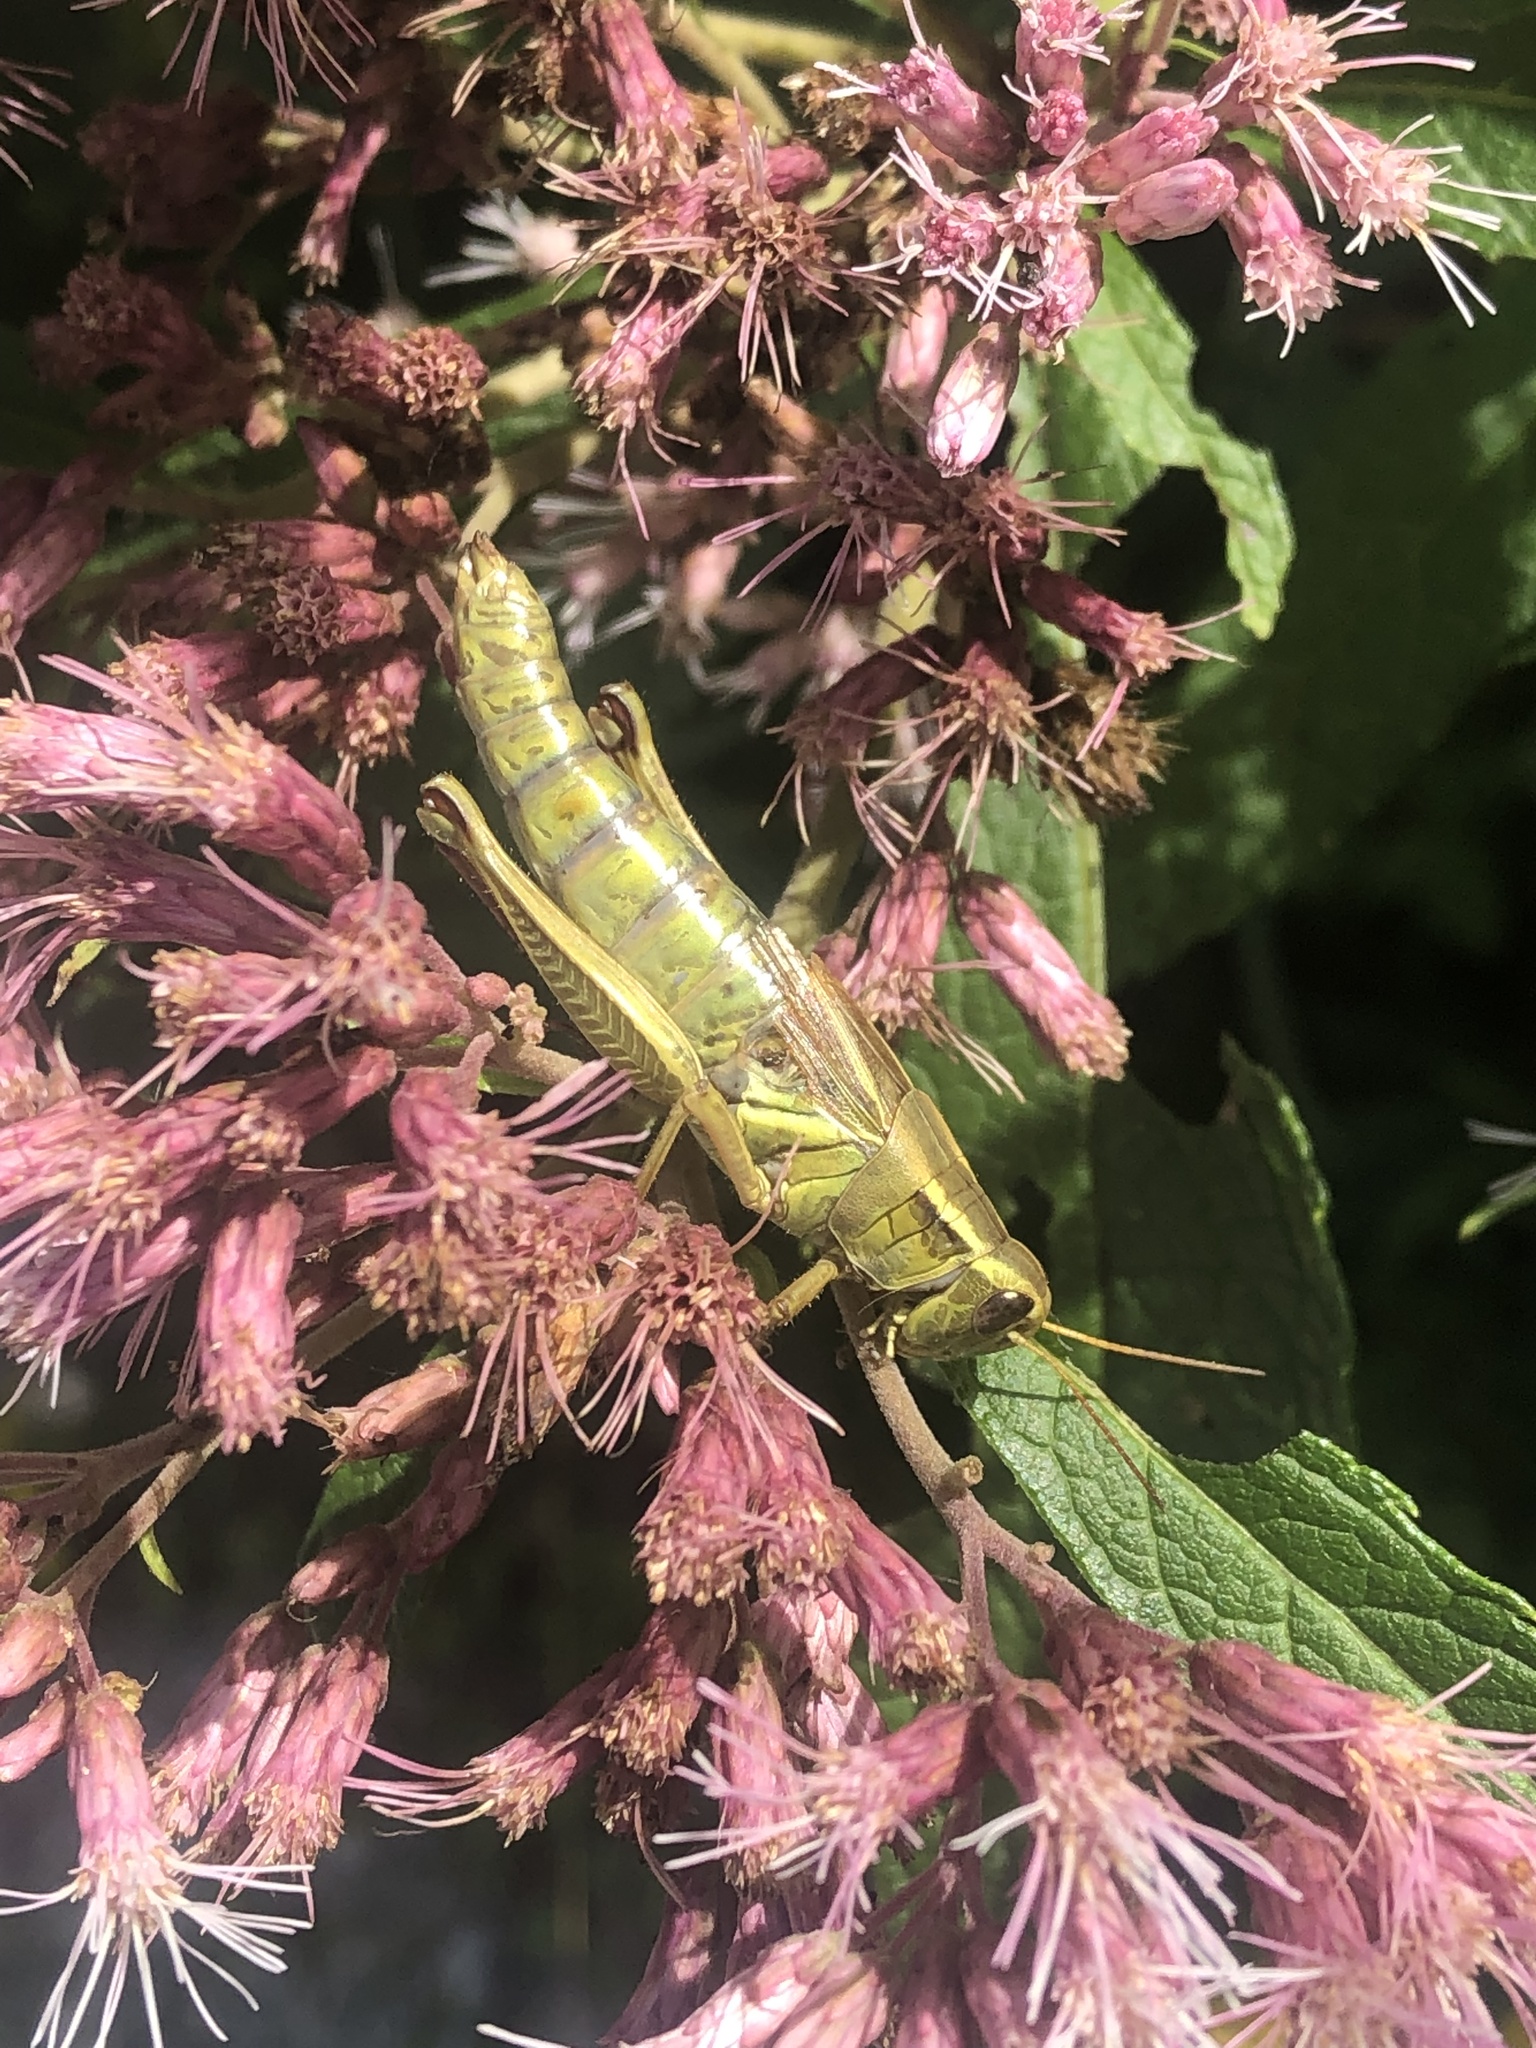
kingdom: Animalia
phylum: Arthropoda
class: Insecta
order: Orthoptera
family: Acrididae
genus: Melanoplus
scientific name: Melanoplus bivittatus
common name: Two-striped grasshopper
